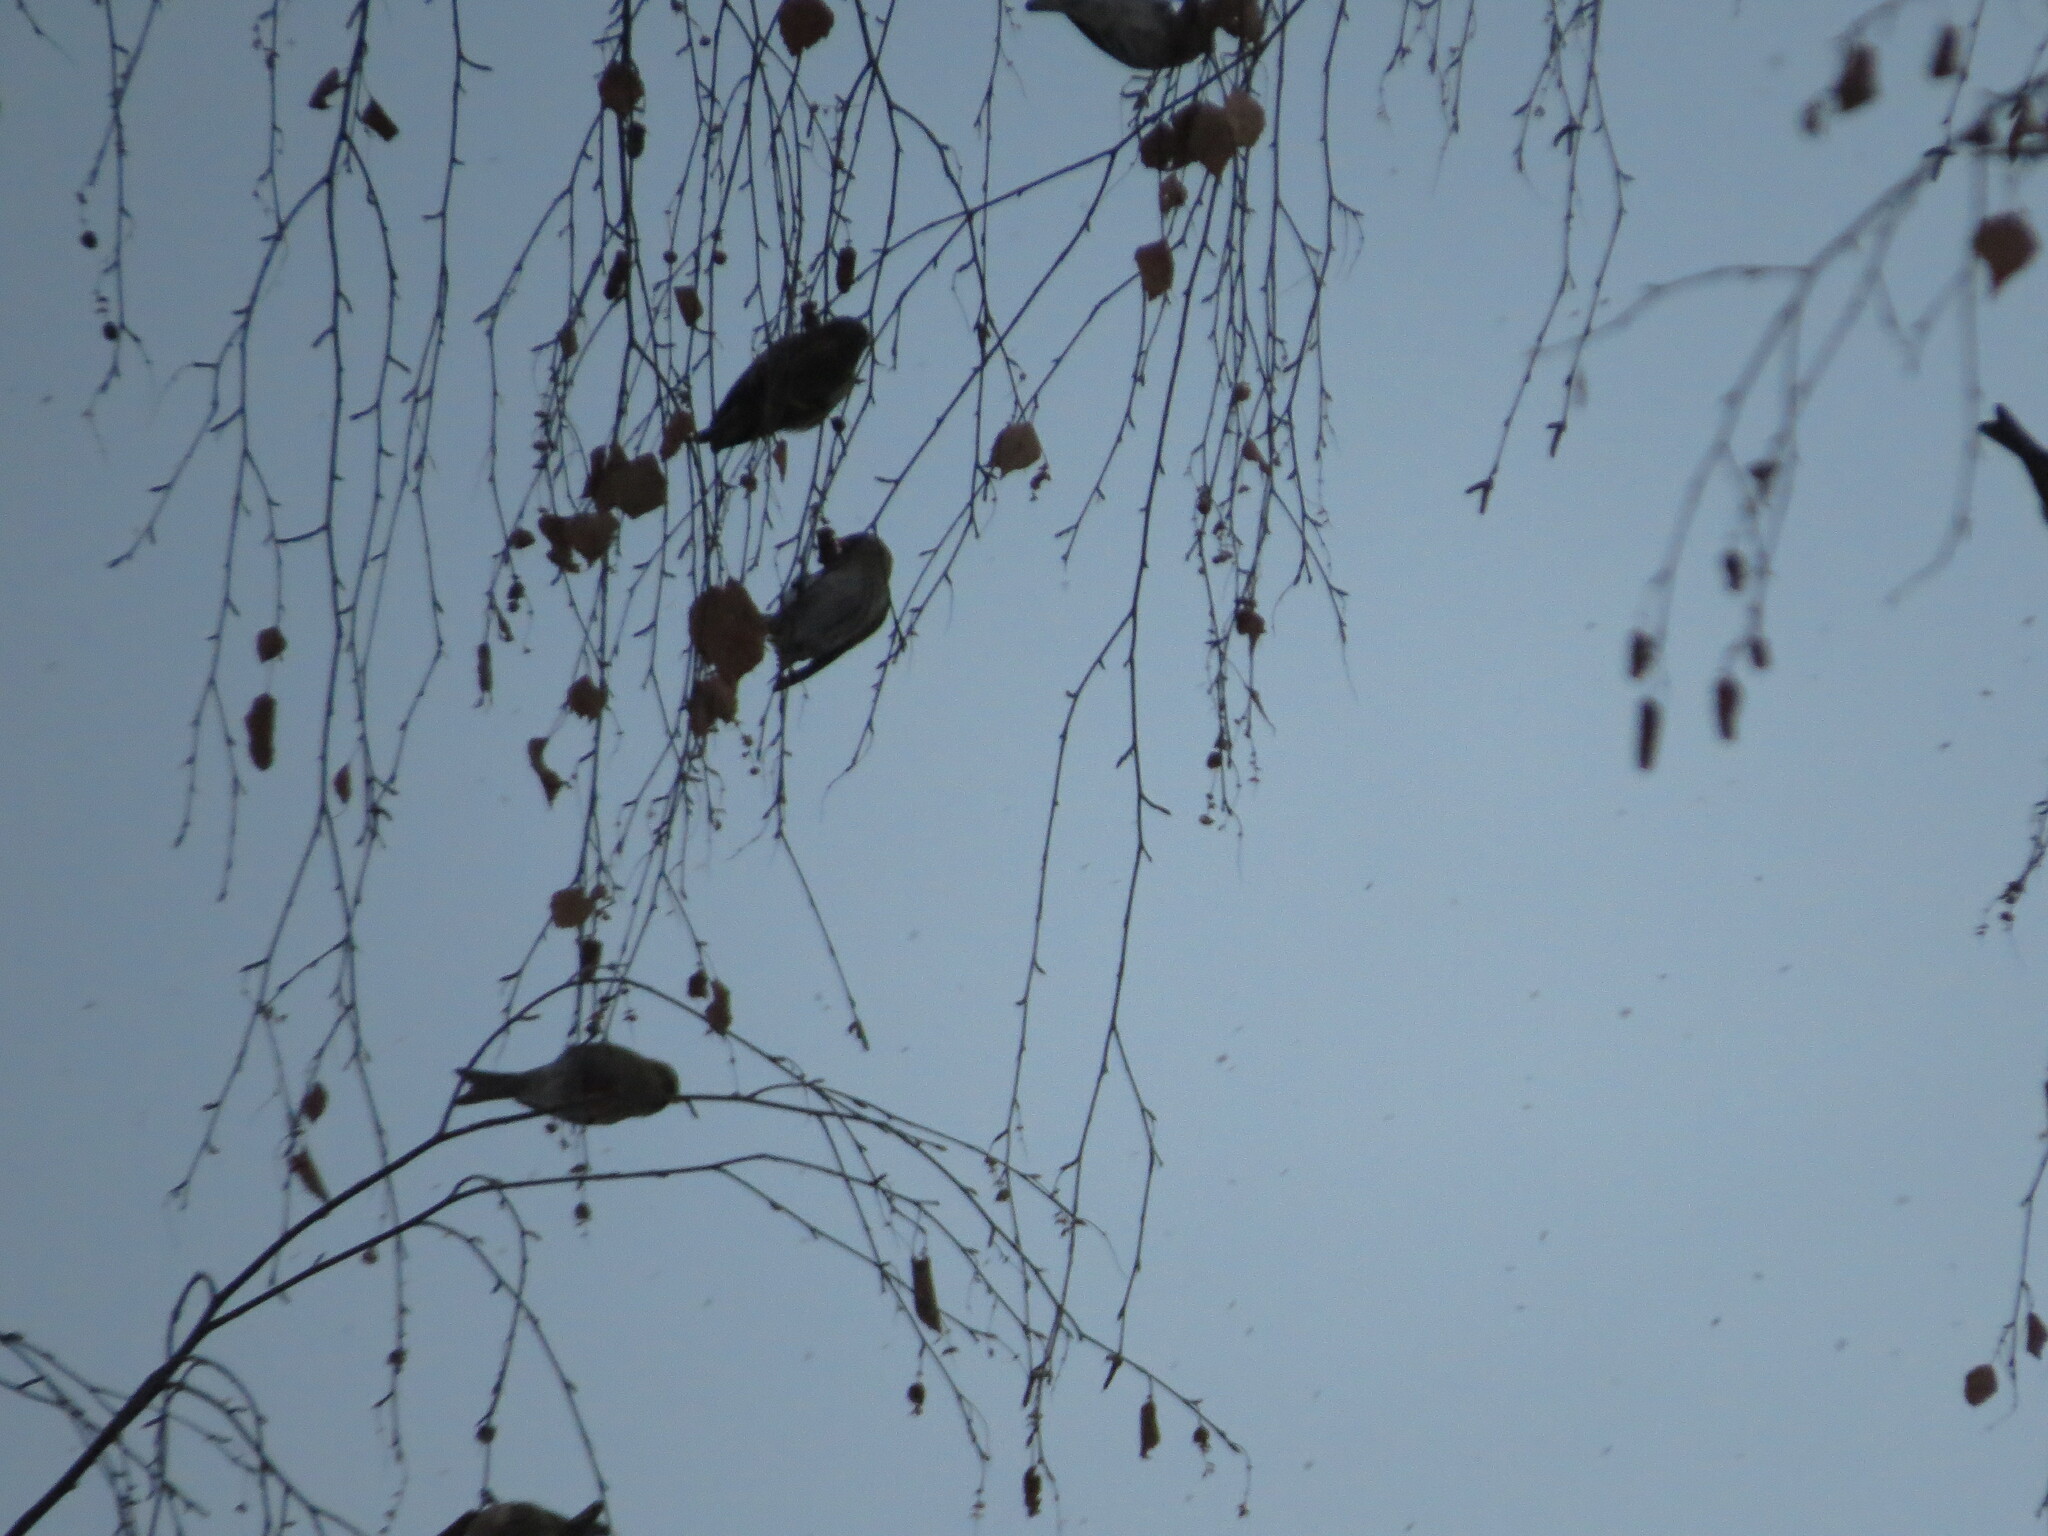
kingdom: Animalia
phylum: Chordata
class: Aves
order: Passeriformes
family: Fringillidae
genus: Acanthis
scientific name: Acanthis flammea
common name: Common redpoll
